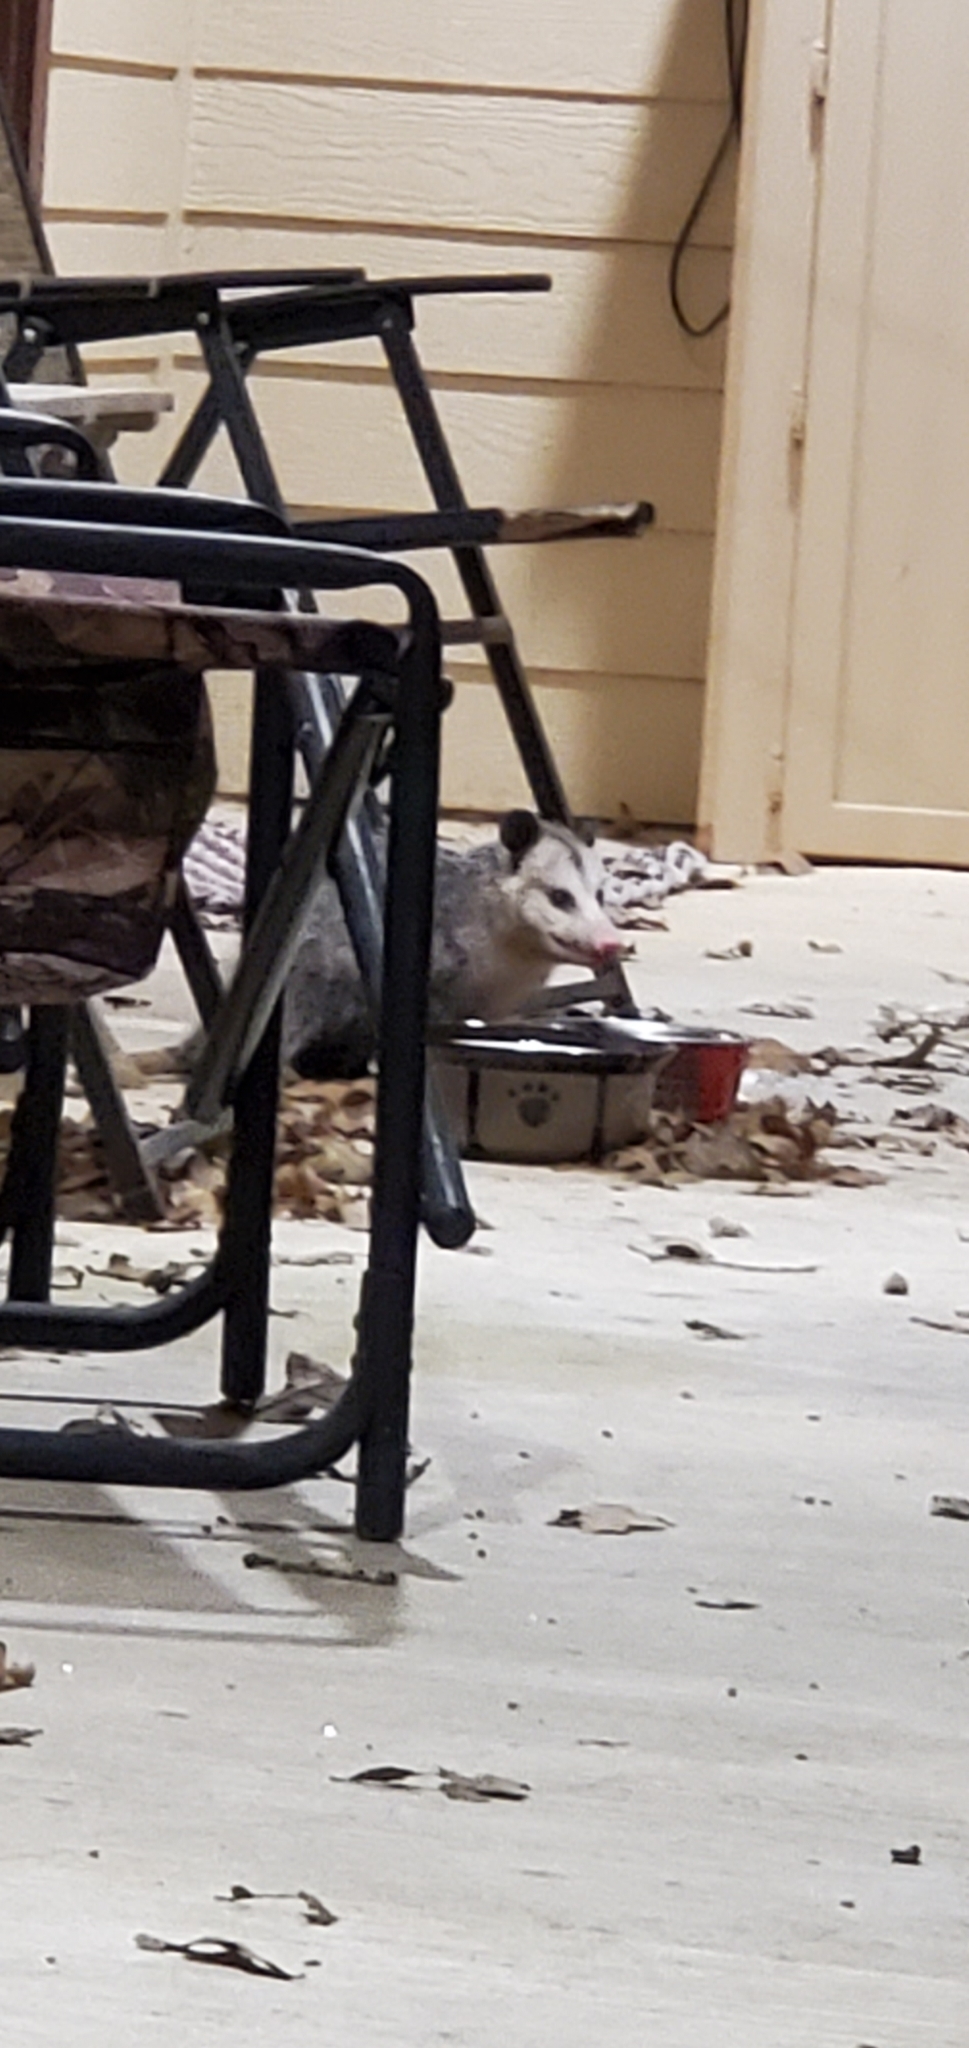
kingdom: Animalia
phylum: Chordata
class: Mammalia
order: Didelphimorphia
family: Didelphidae
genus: Didelphis
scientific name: Didelphis virginiana
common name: Virginia opossum
